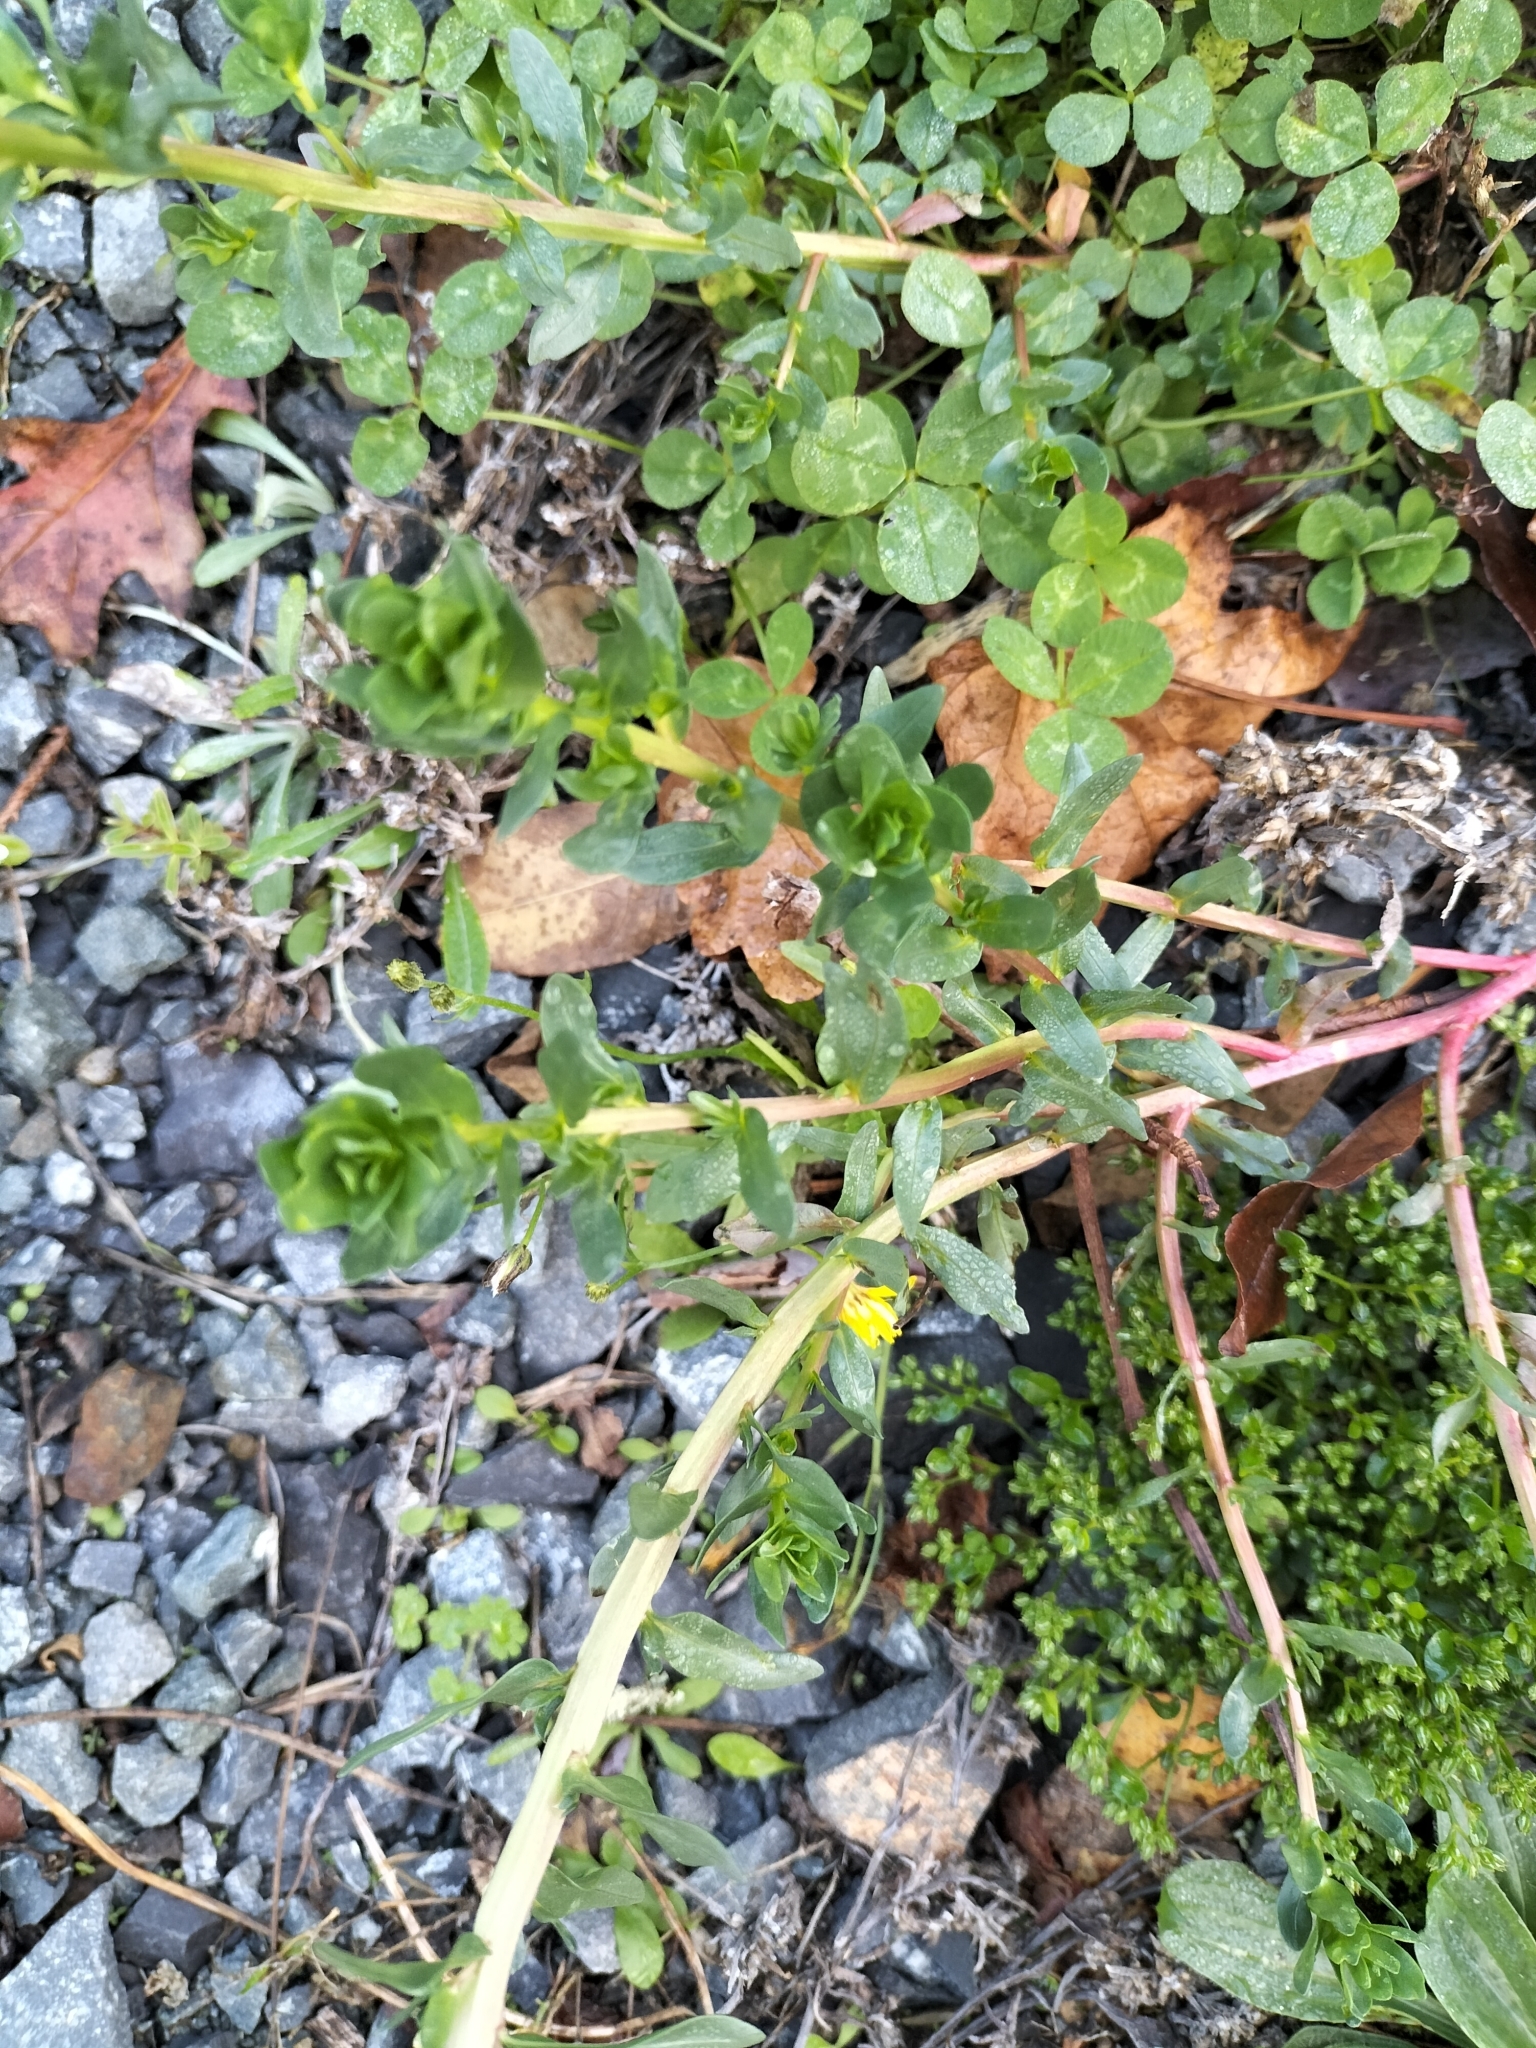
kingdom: Plantae
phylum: Tracheophyta
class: Magnoliopsida
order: Myrtales
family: Lythraceae
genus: Lythrum
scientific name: Lythrum hyssopifolia
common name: Grass-poly
